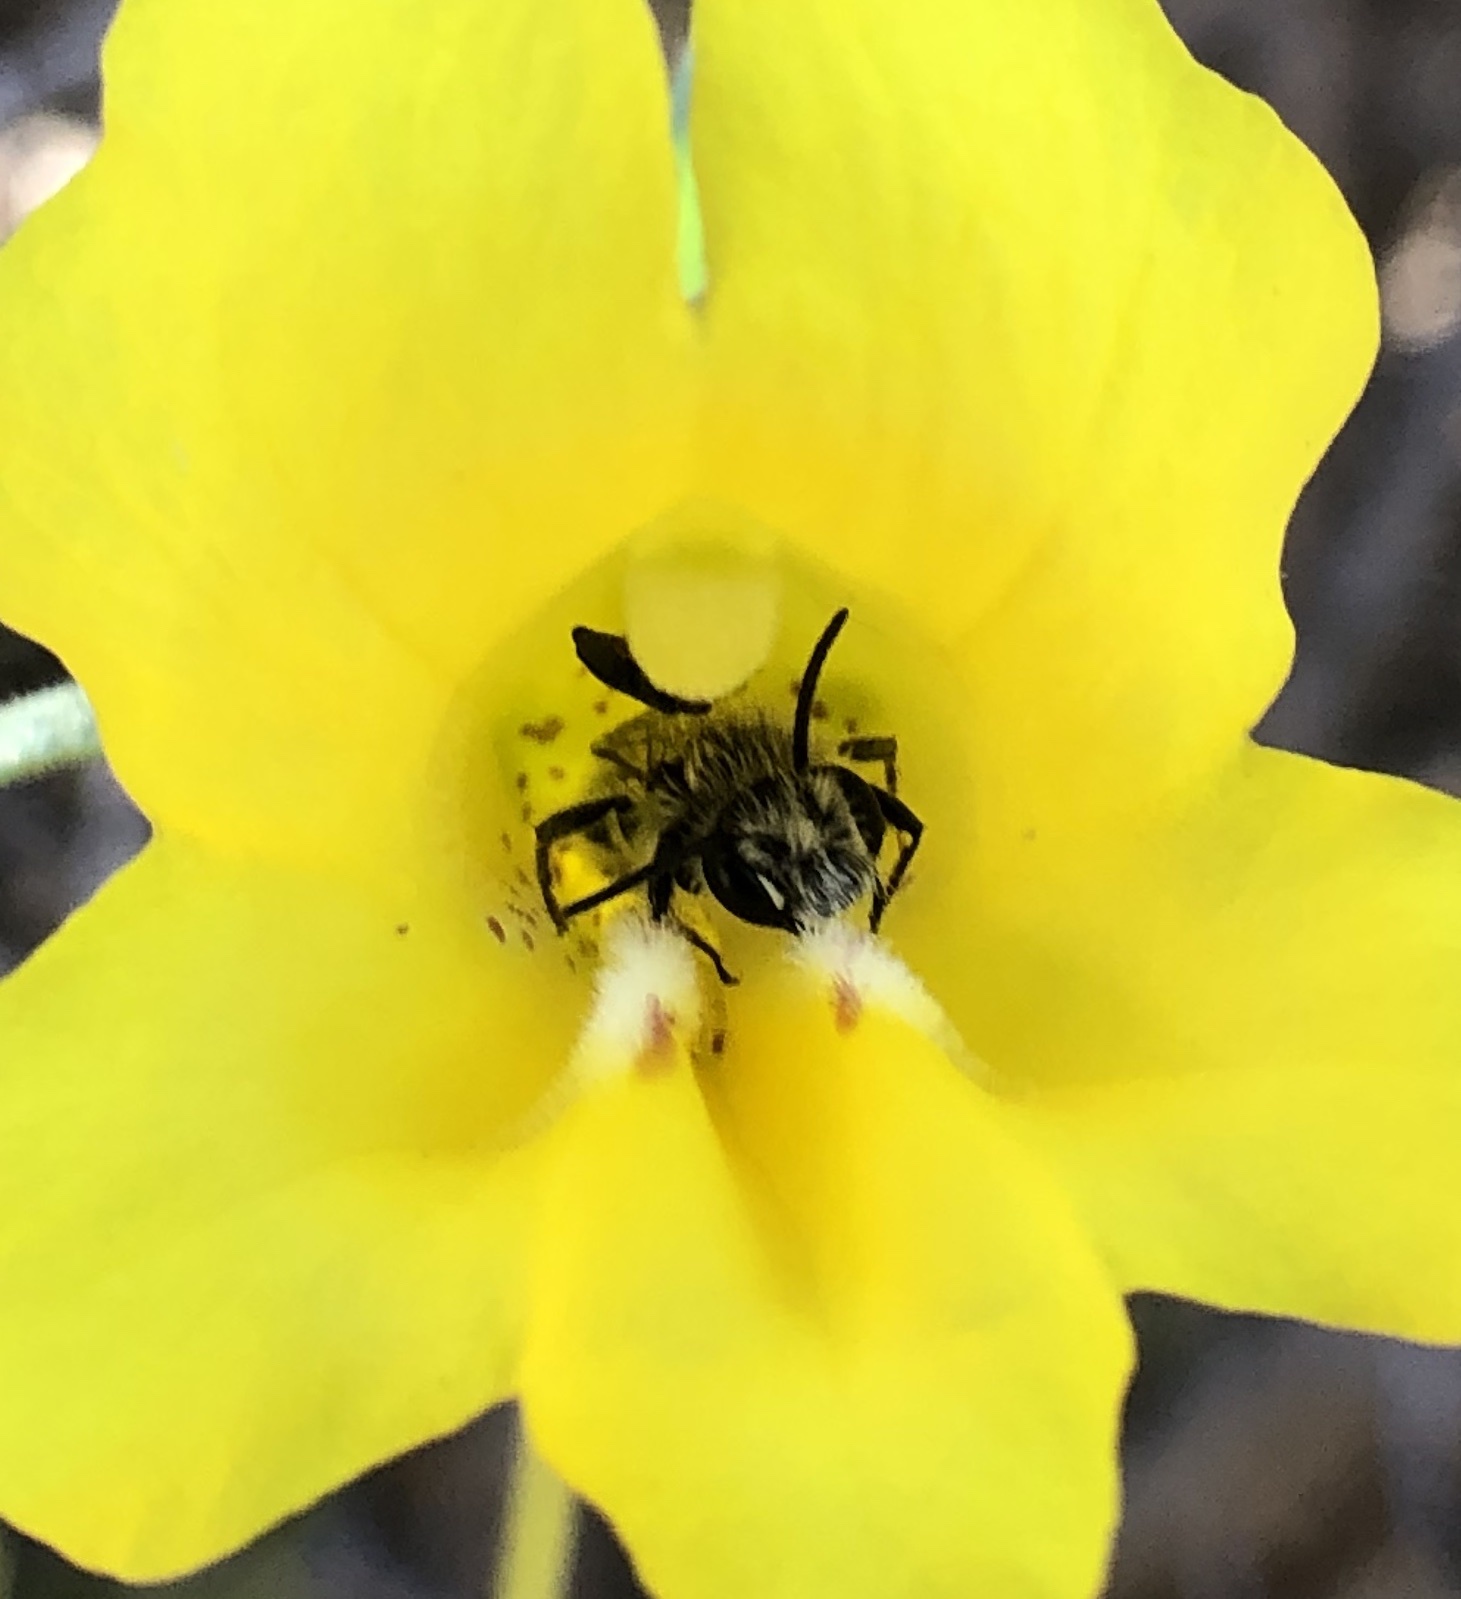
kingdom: Animalia
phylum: Arthropoda
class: Insecta
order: Hymenoptera
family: Andrenidae
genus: Ancylandrena
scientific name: Ancylandrena atoposoma
